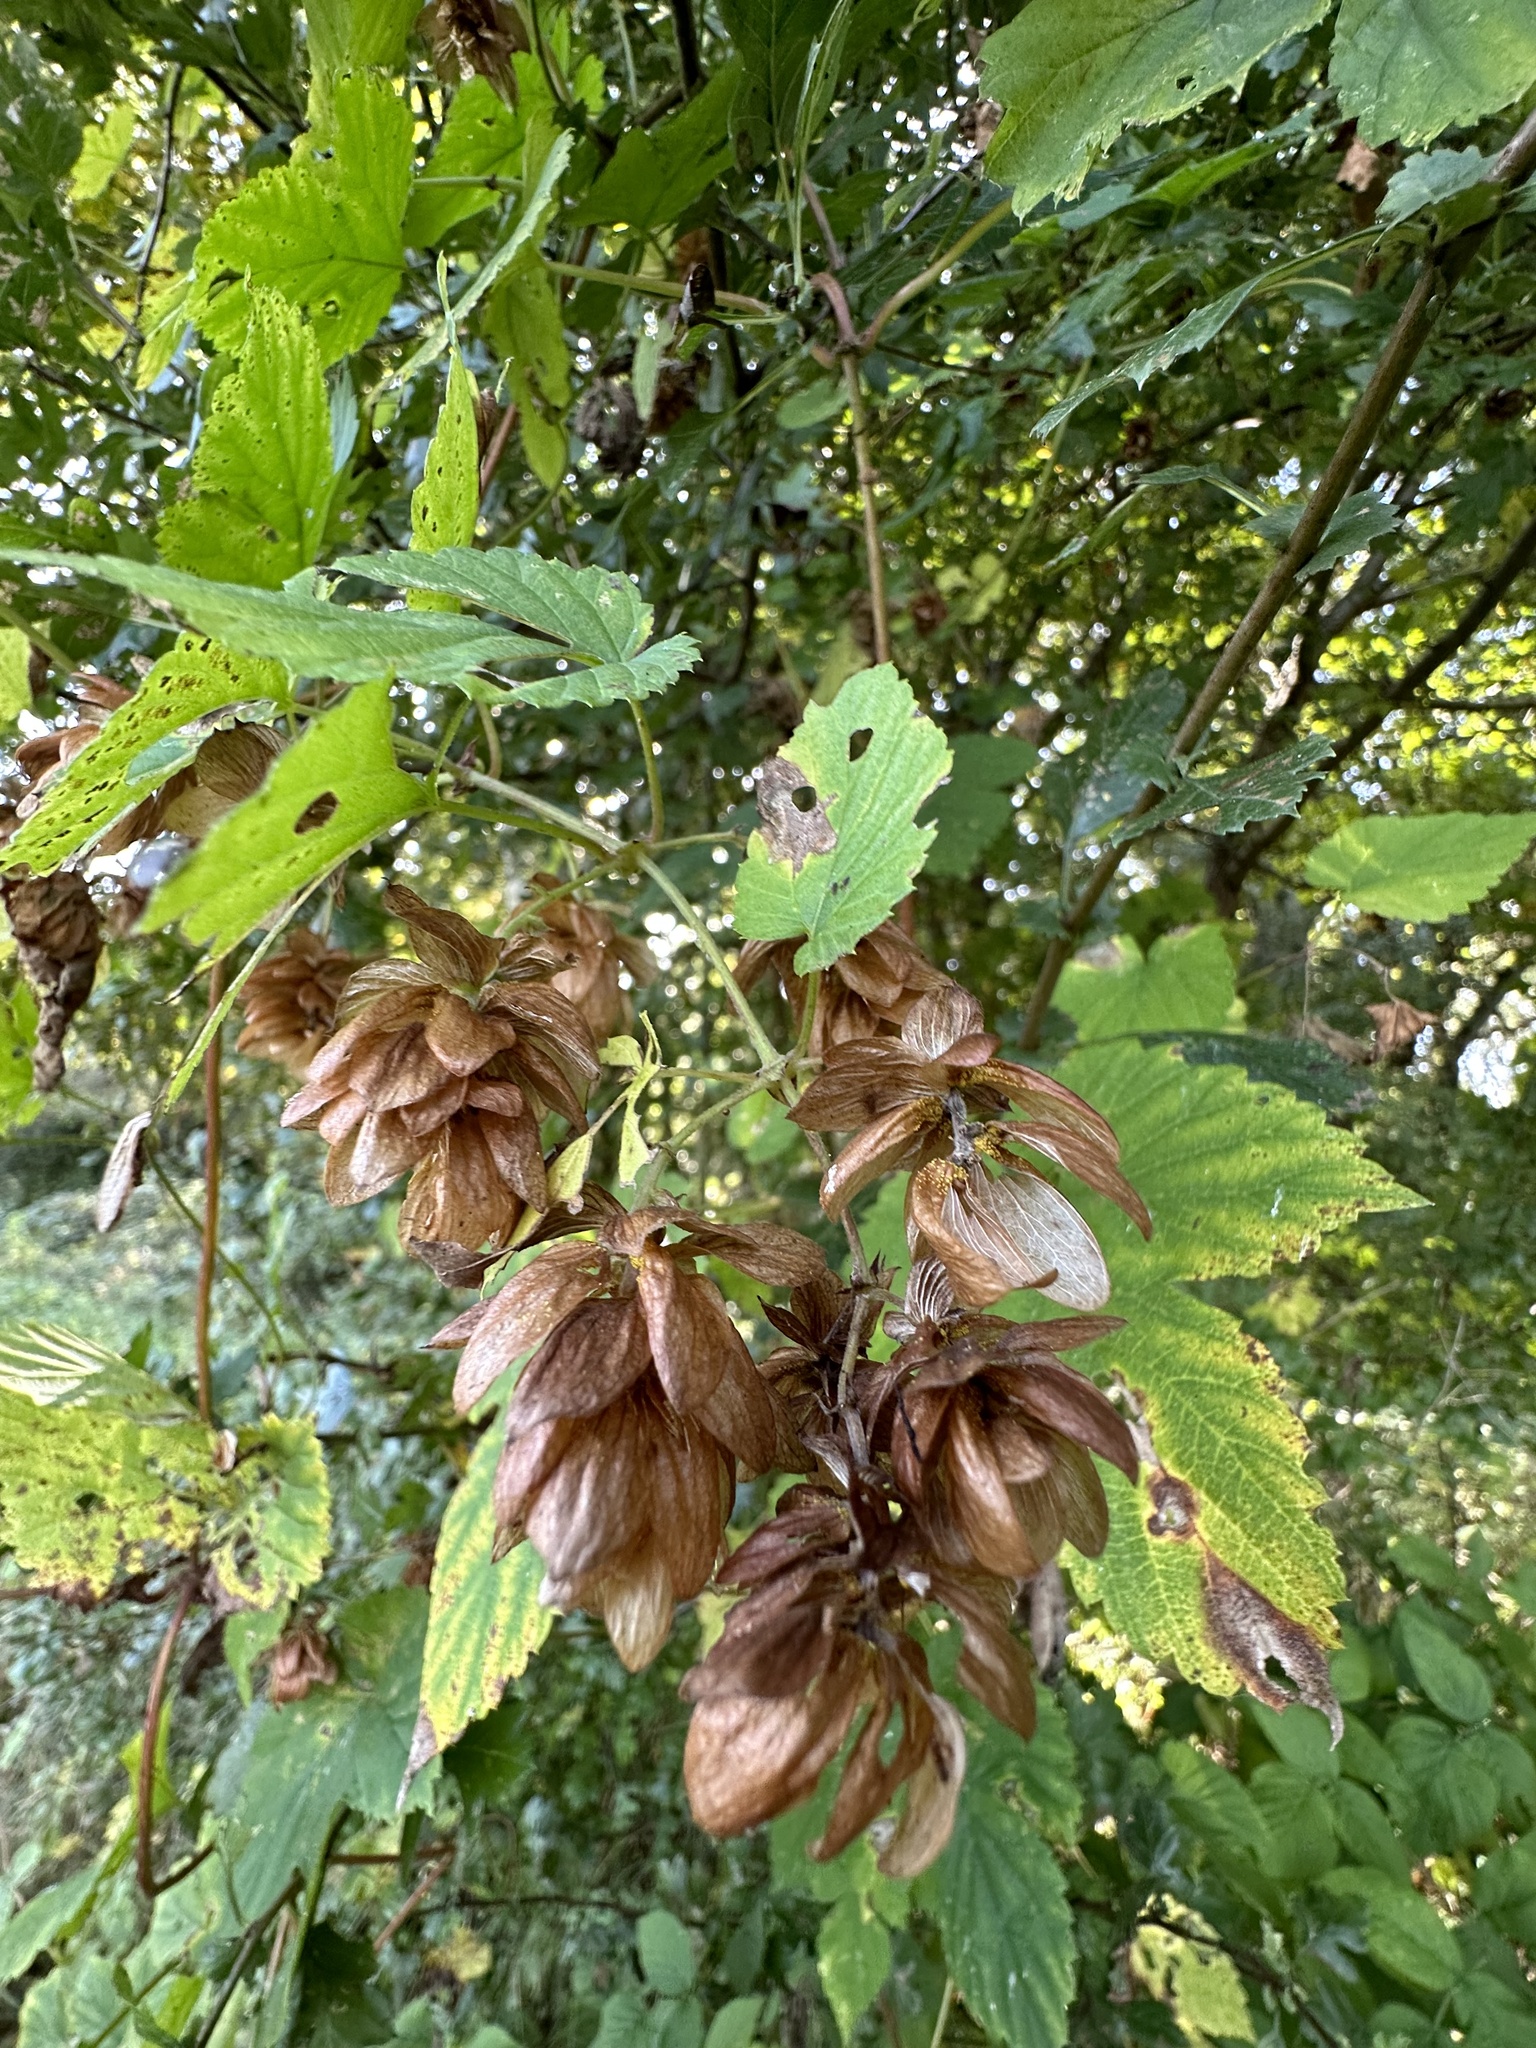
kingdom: Plantae
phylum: Tracheophyta
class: Magnoliopsida
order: Rosales
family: Cannabaceae
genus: Humulus
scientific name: Humulus lupulus
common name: Hop
